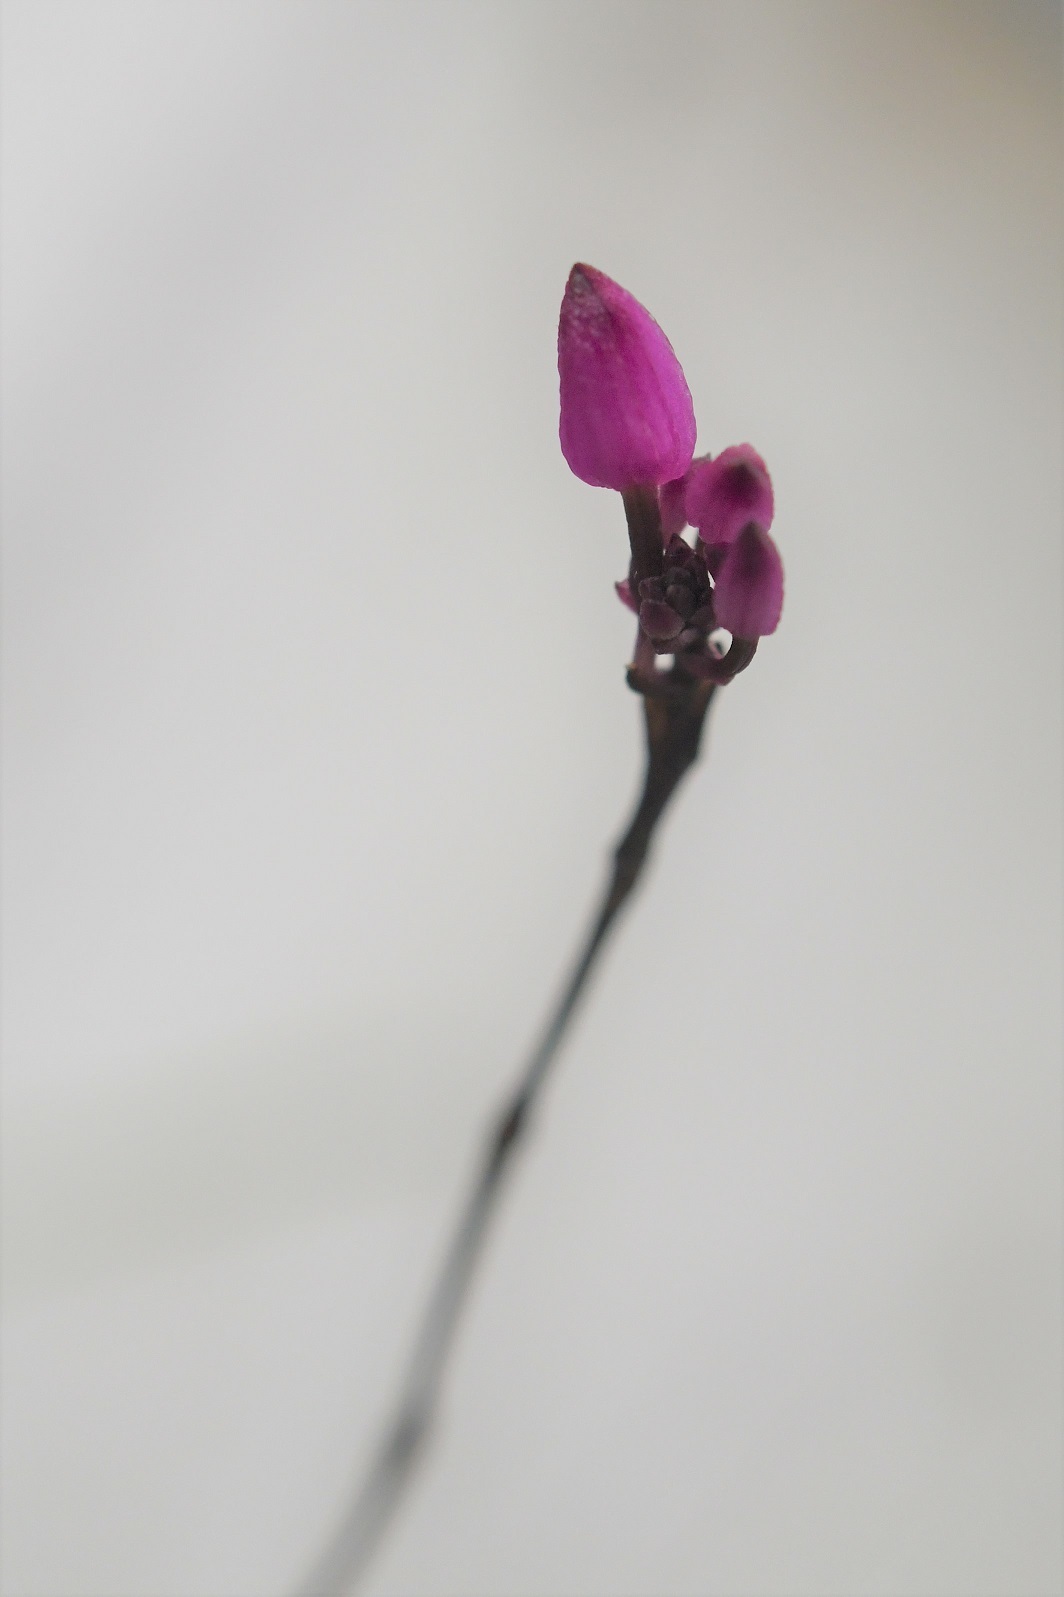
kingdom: Plantae
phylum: Tracheophyta
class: Liliopsida
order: Asparagales
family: Orchidaceae
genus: Domingoa
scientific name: Domingoa purpurea
